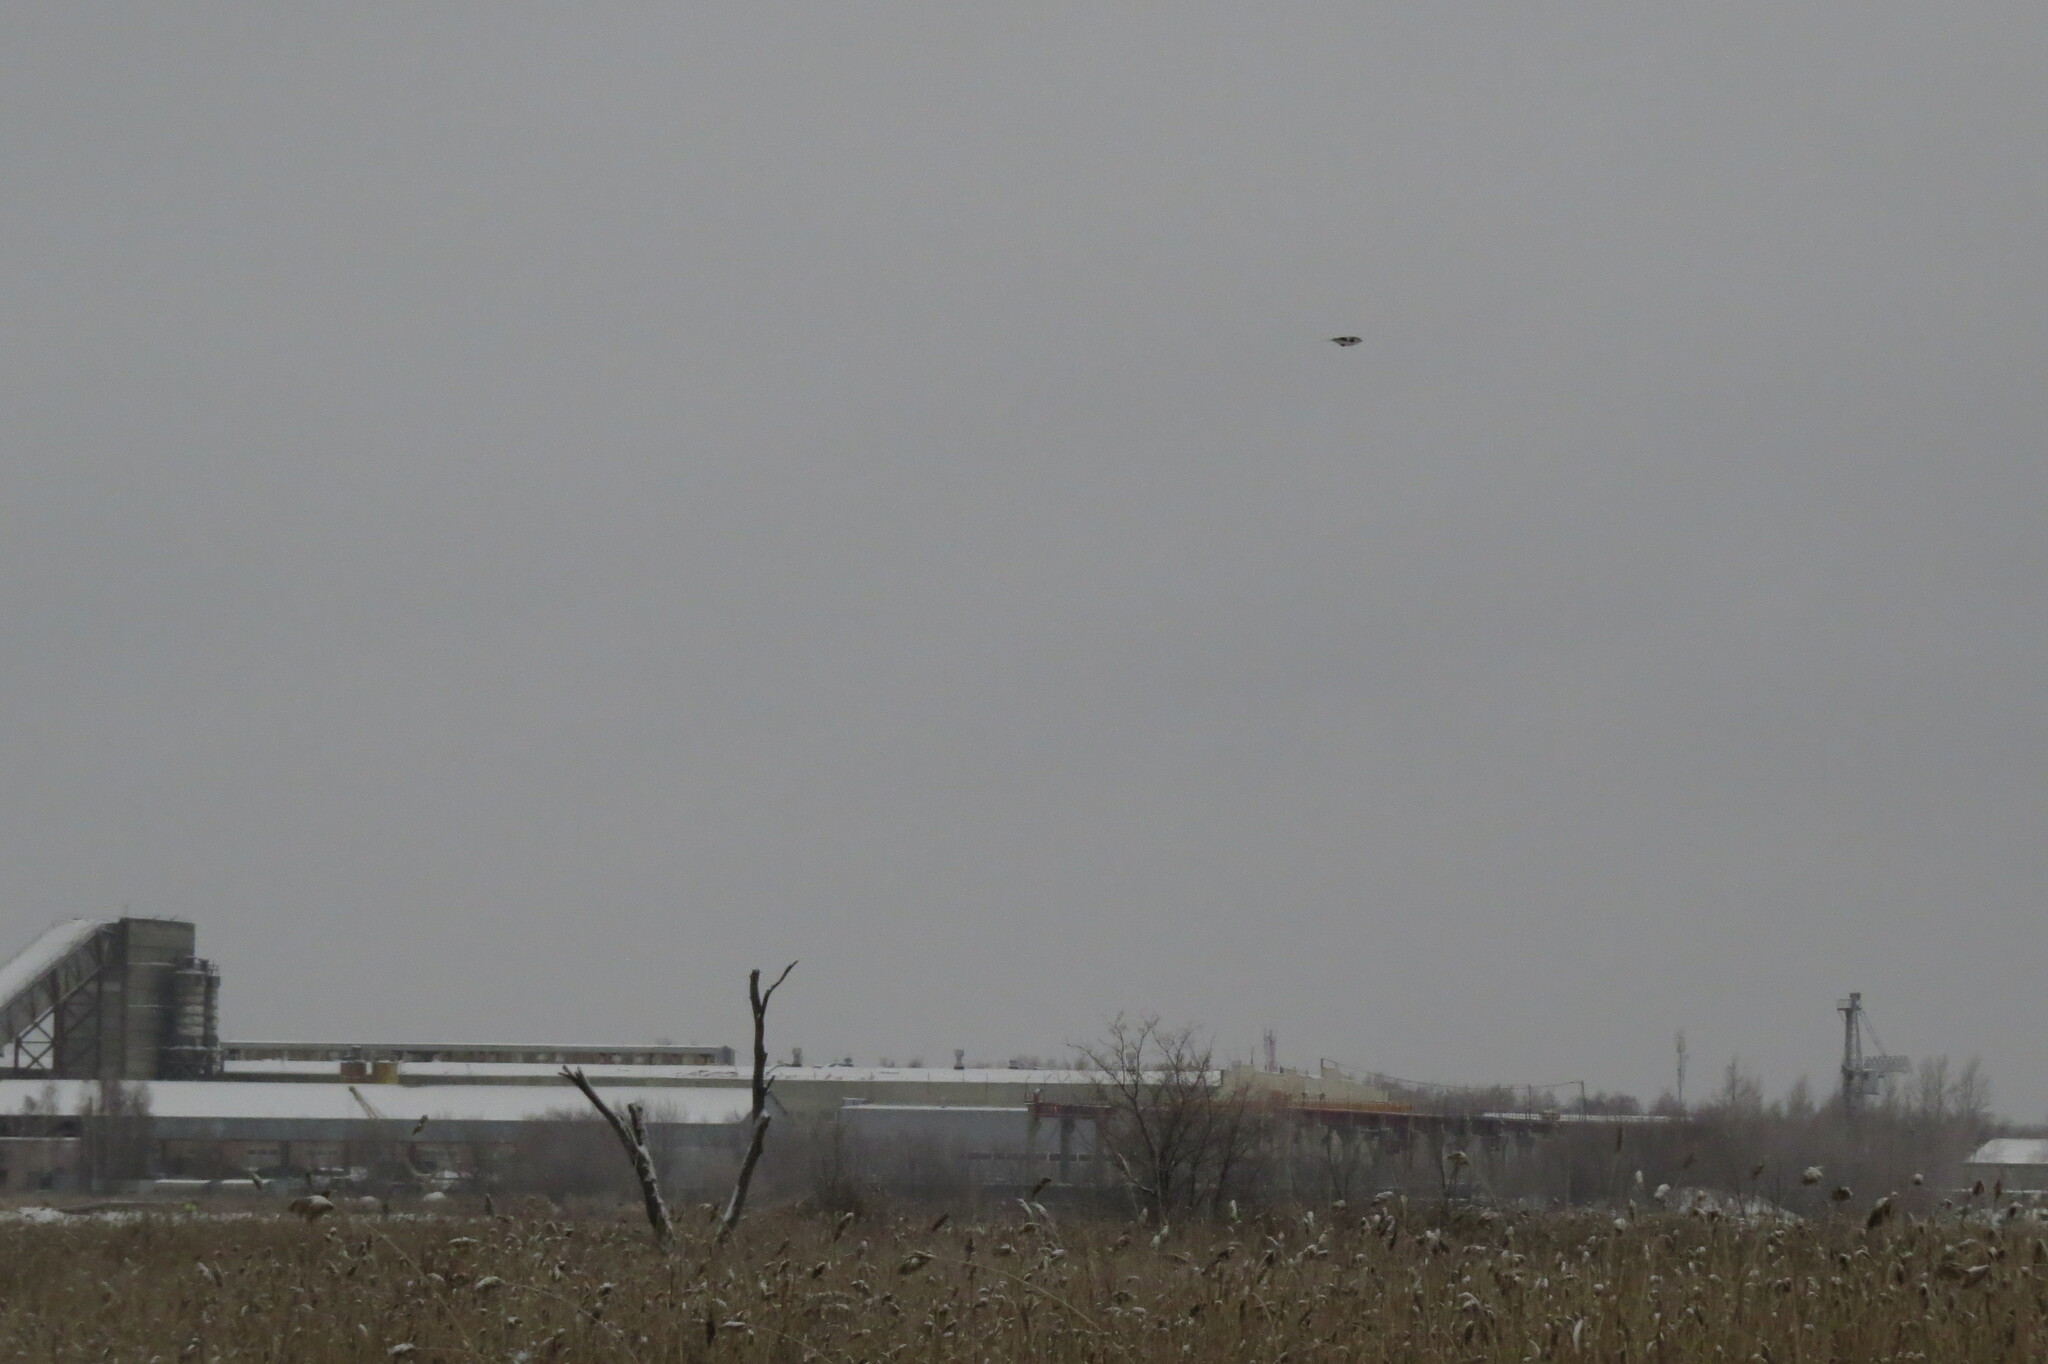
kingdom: Animalia
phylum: Chordata
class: Aves
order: Passeriformes
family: Laniidae
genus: Lanius
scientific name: Lanius excubitor
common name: Great grey shrike
